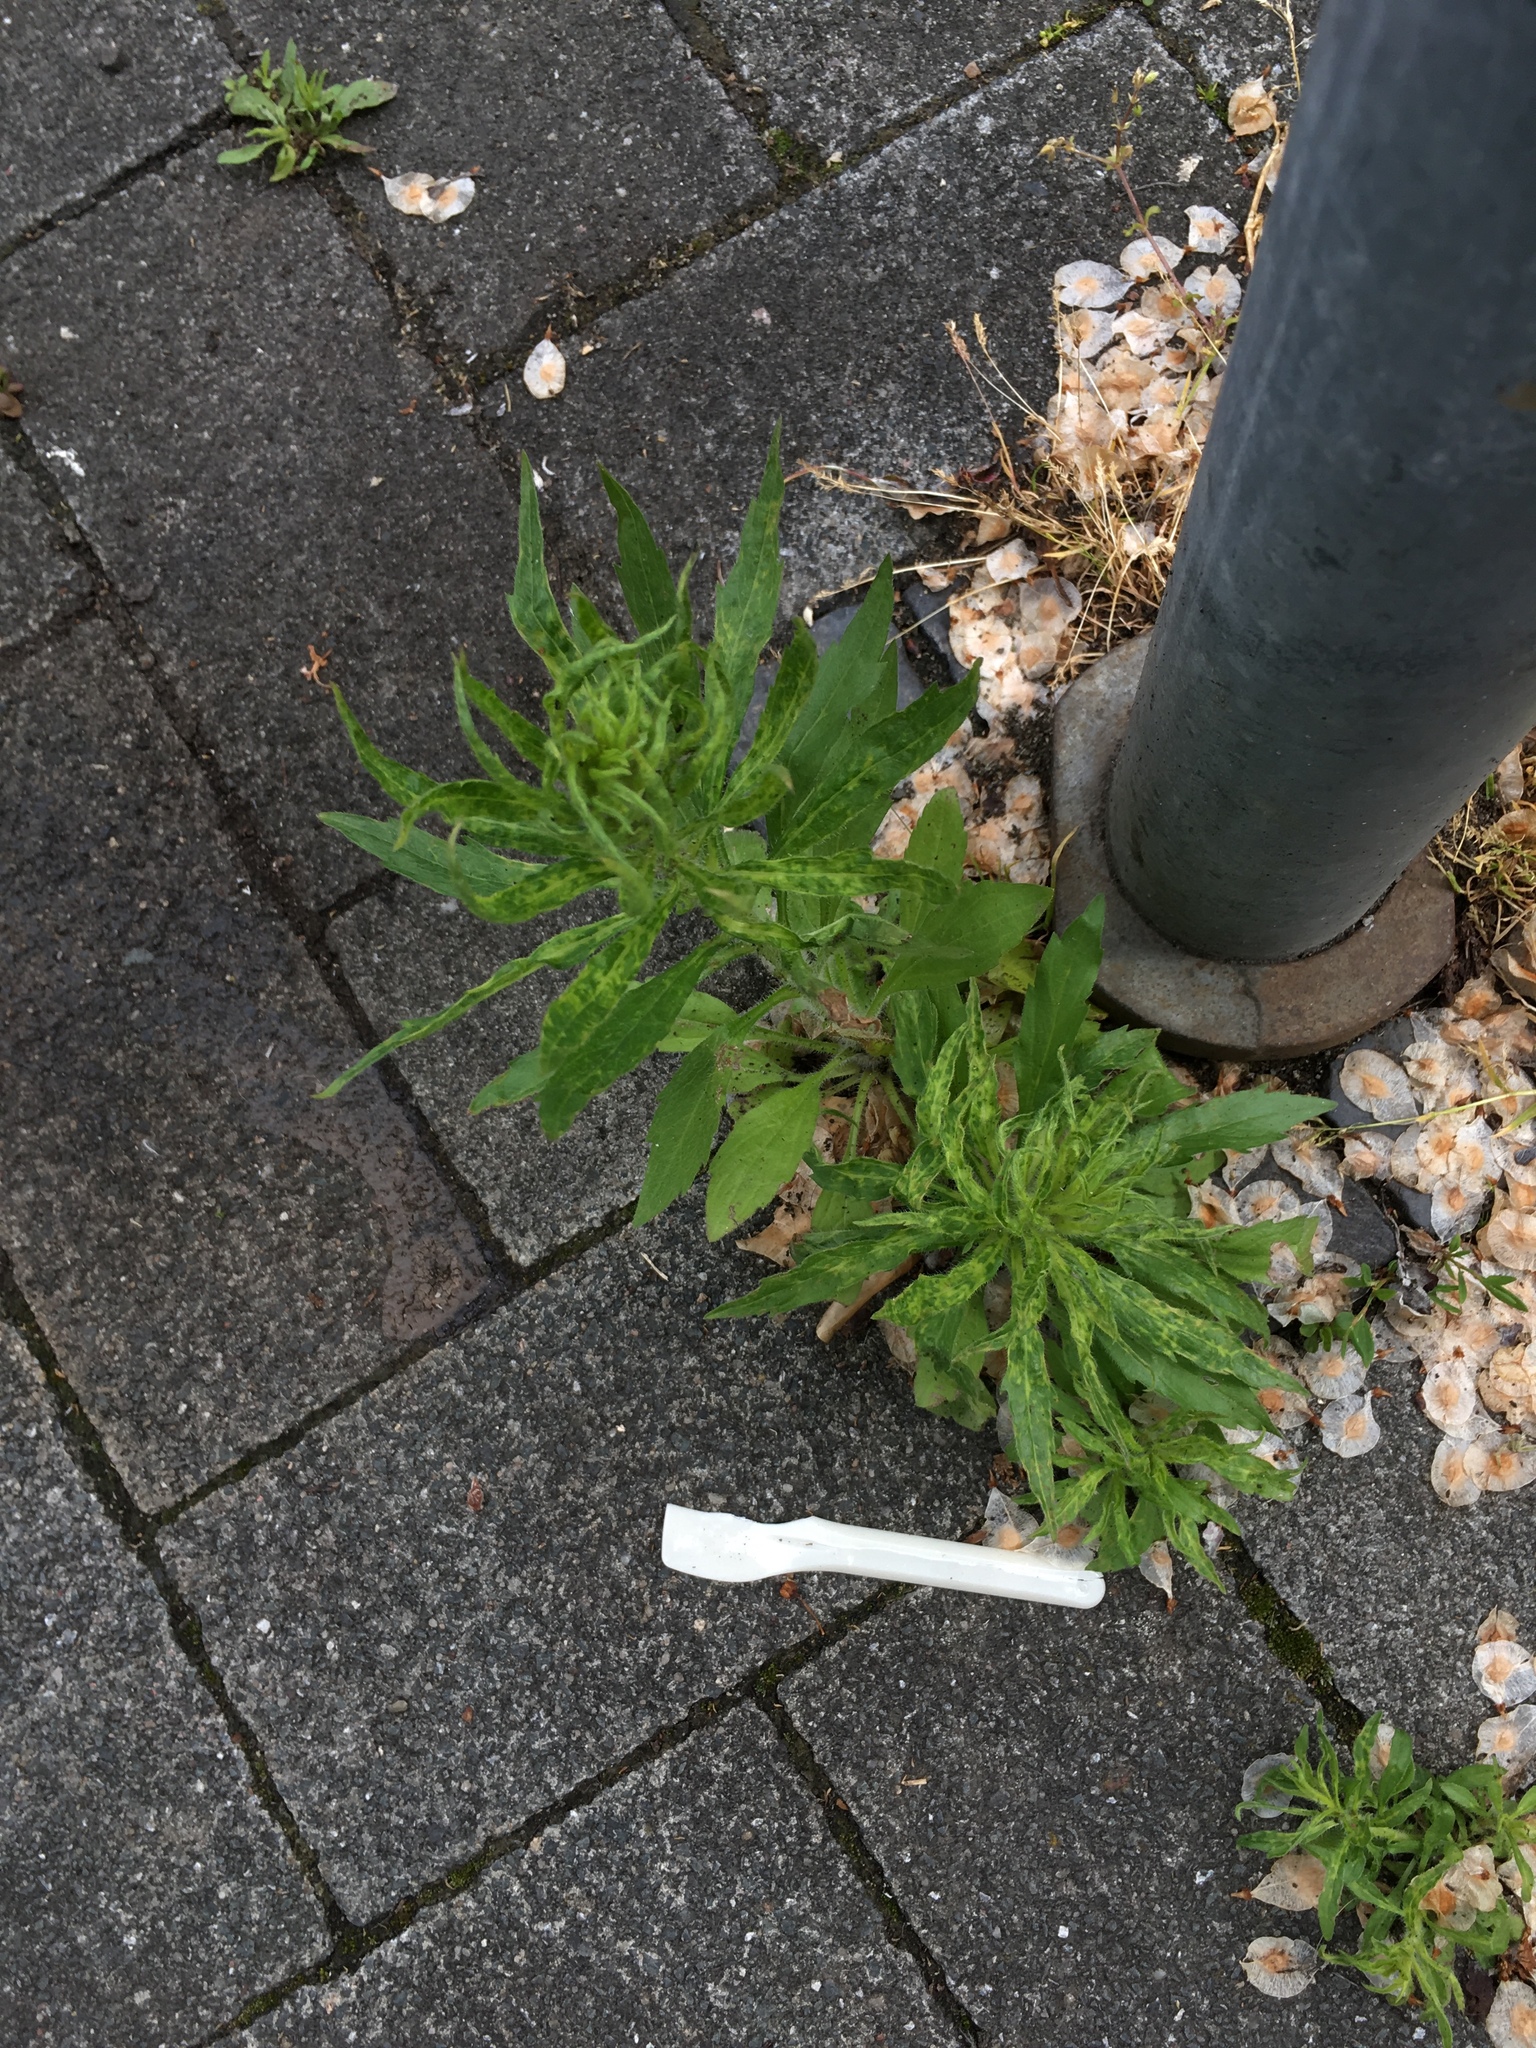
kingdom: Plantae
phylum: Tracheophyta
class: Magnoliopsida
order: Asterales
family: Asteraceae
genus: Erigeron
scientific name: Erigeron canadensis
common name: Canadian fleabane
